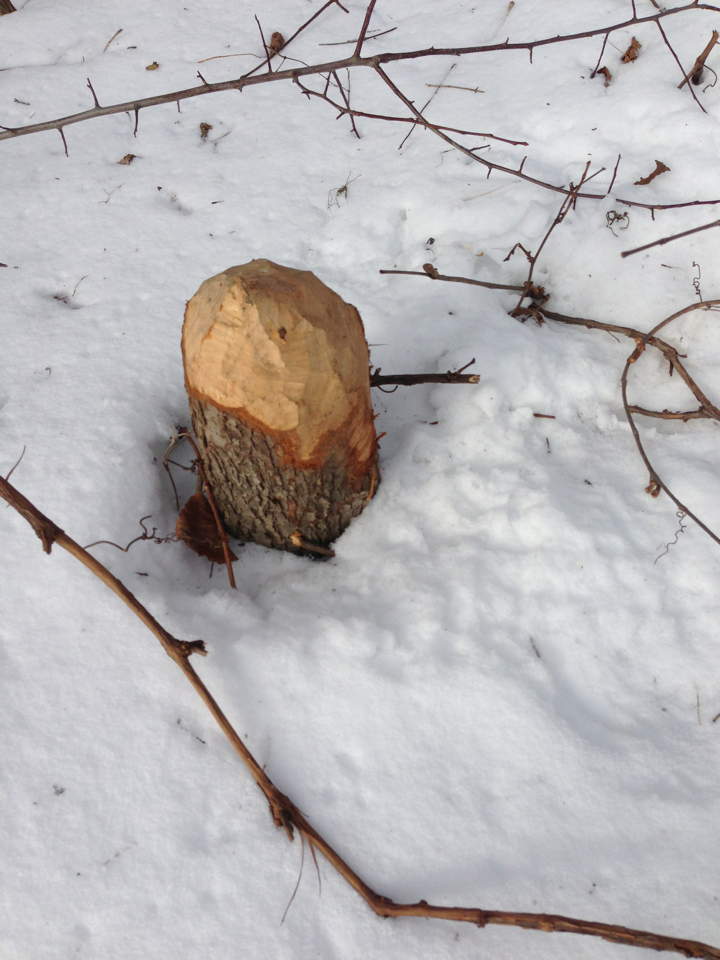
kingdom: Animalia
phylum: Chordata
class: Mammalia
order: Rodentia
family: Castoridae
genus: Castor
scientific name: Castor canadensis
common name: American beaver
